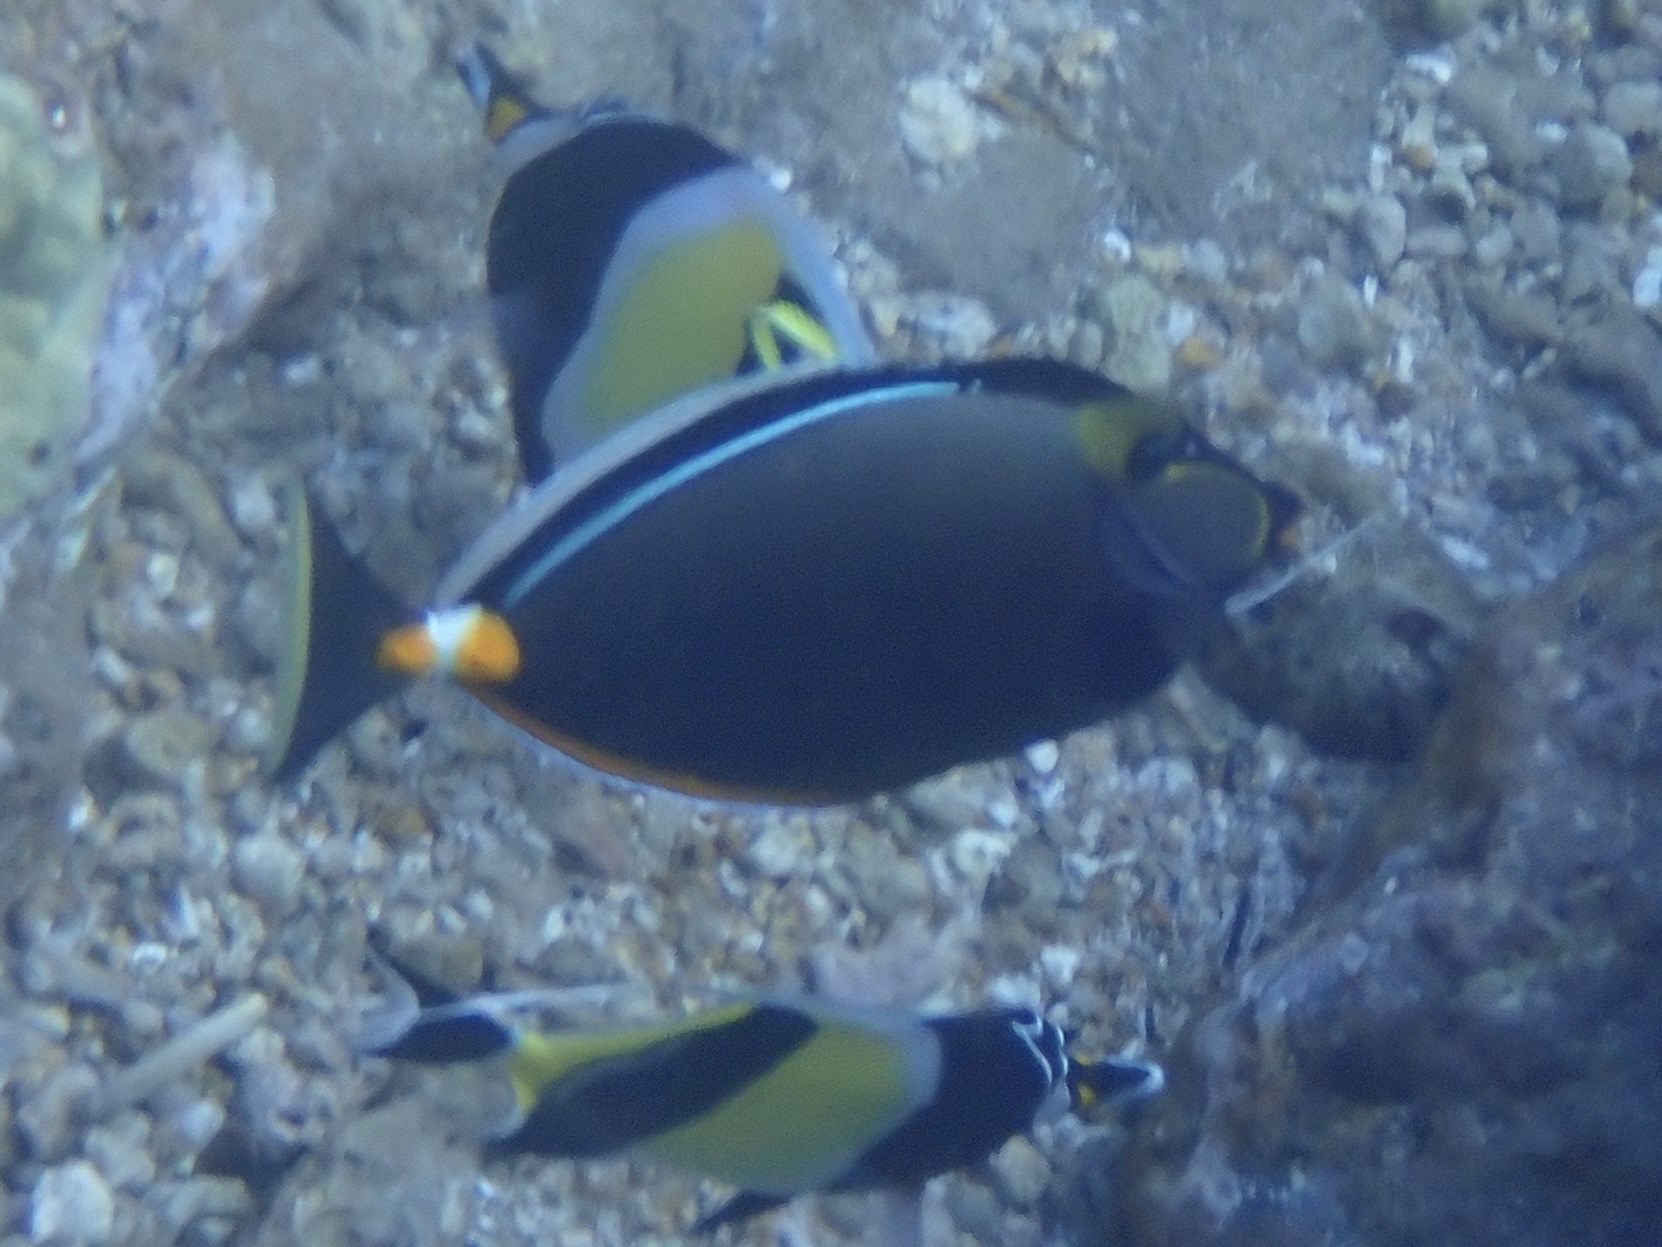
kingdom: Animalia
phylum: Chordata
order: Perciformes
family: Acanthuridae
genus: Naso
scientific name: Naso lituratus
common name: Orangespine unicornfish
